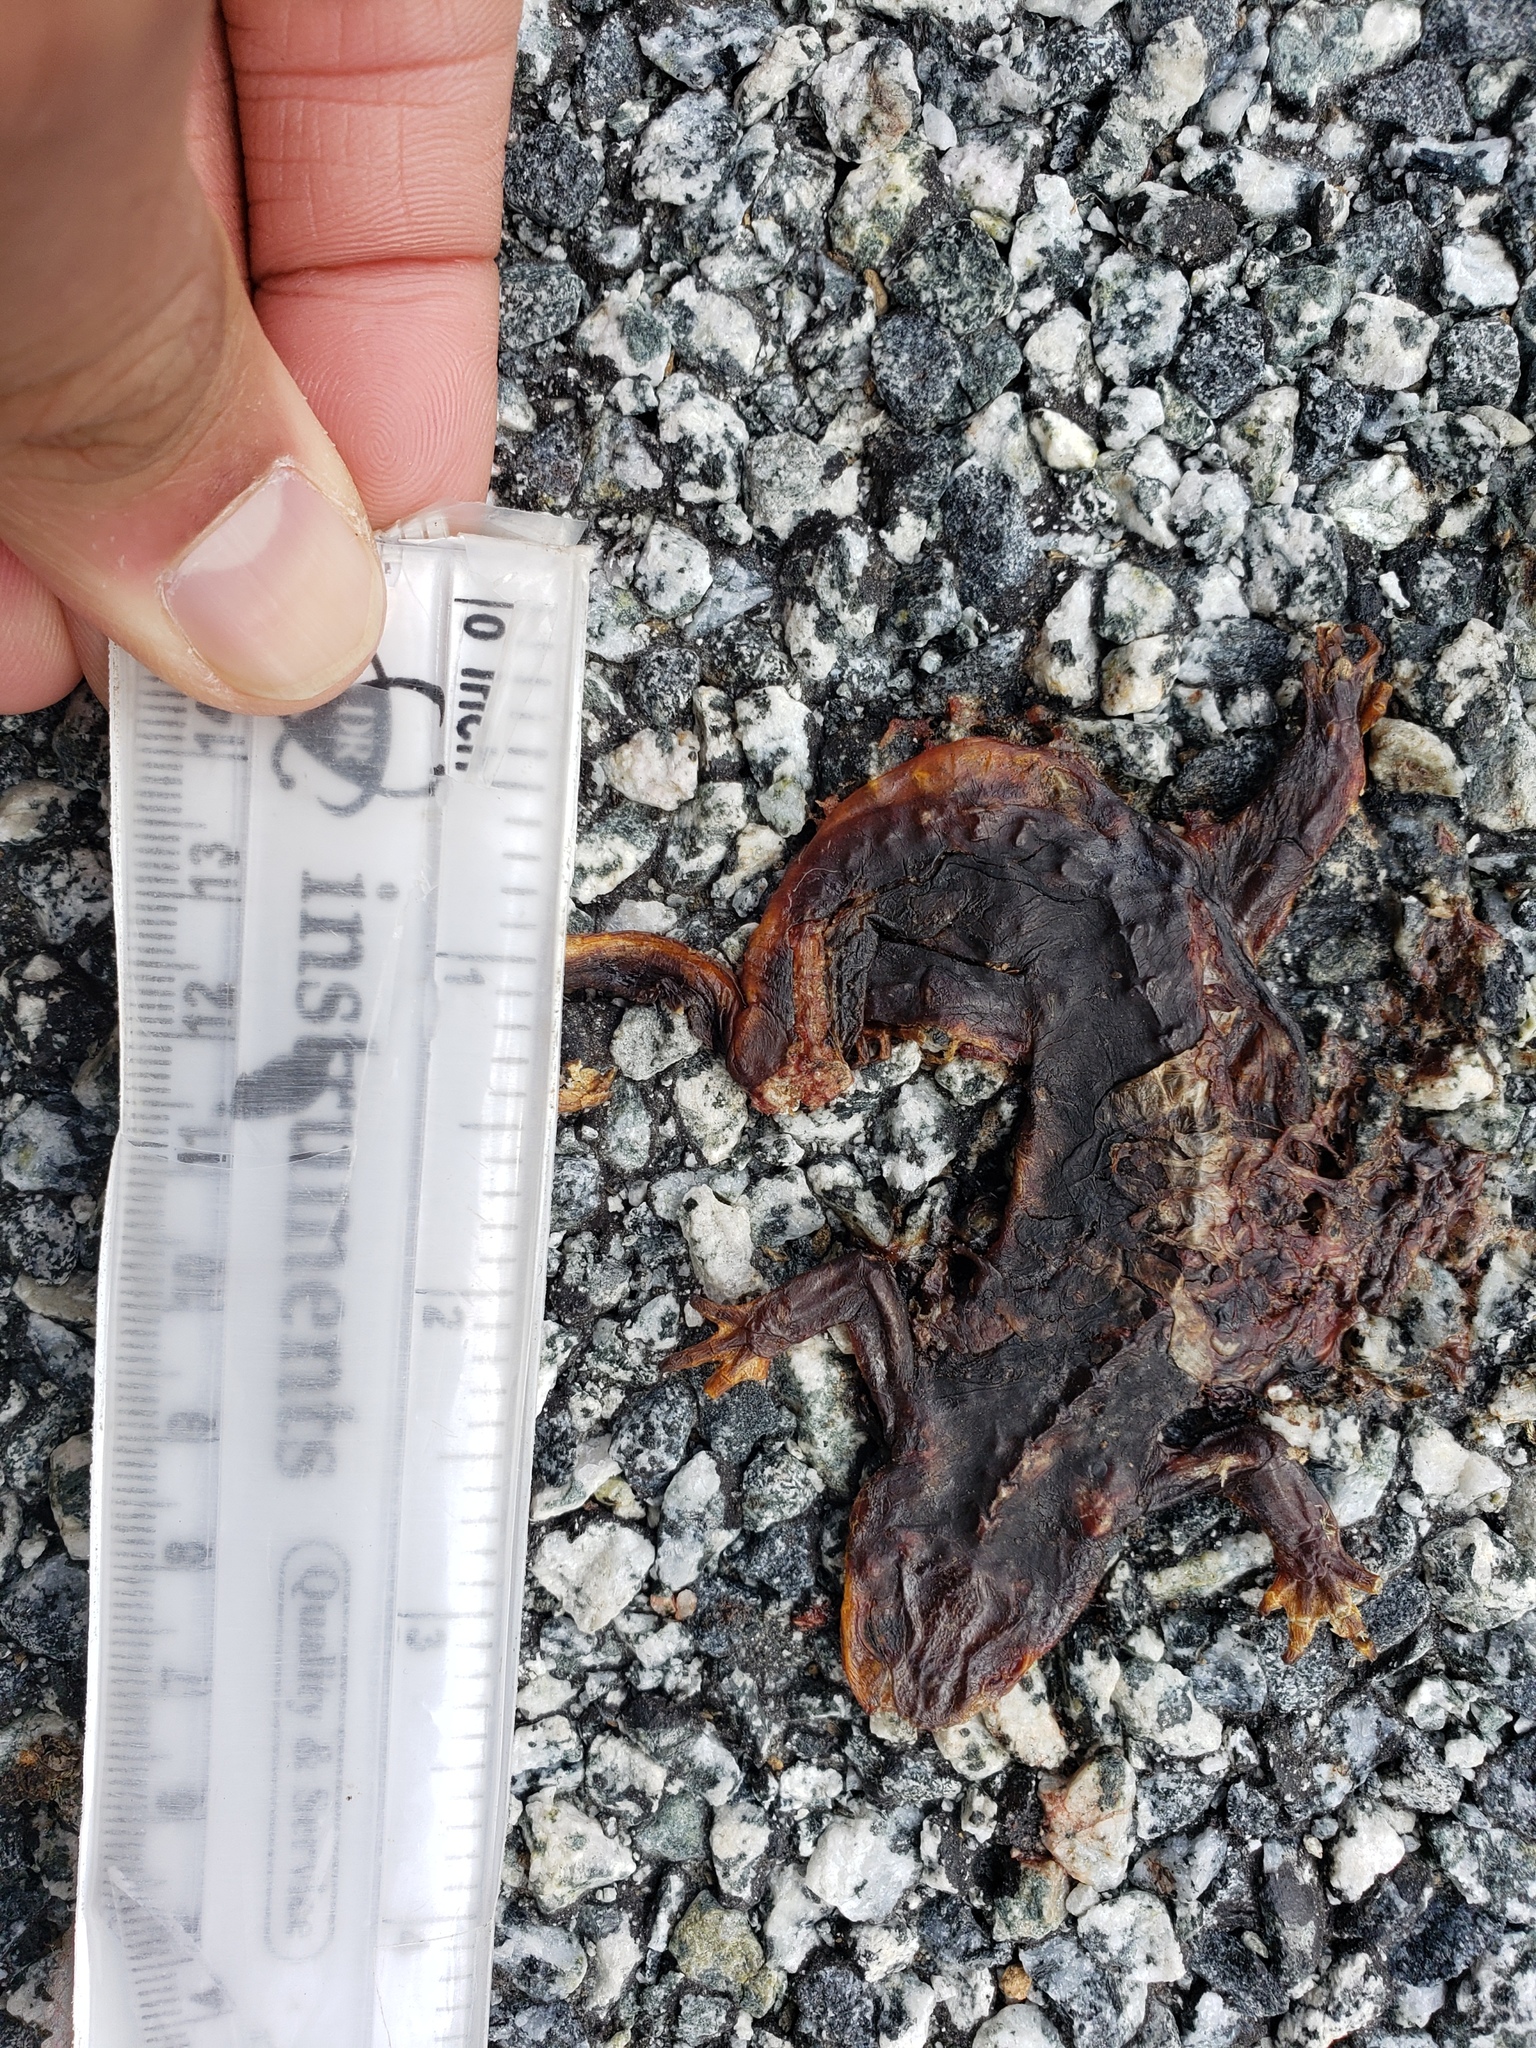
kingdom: Animalia
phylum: Chordata
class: Amphibia
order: Caudata
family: Salamandridae
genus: Taricha
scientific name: Taricha
